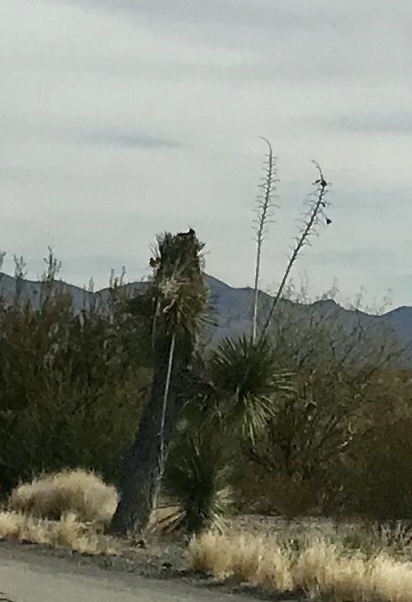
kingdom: Plantae
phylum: Tracheophyta
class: Liliopsida
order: Asparagales
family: Asparagaceae
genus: Yucca
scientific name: Yucca elata
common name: Palmella
